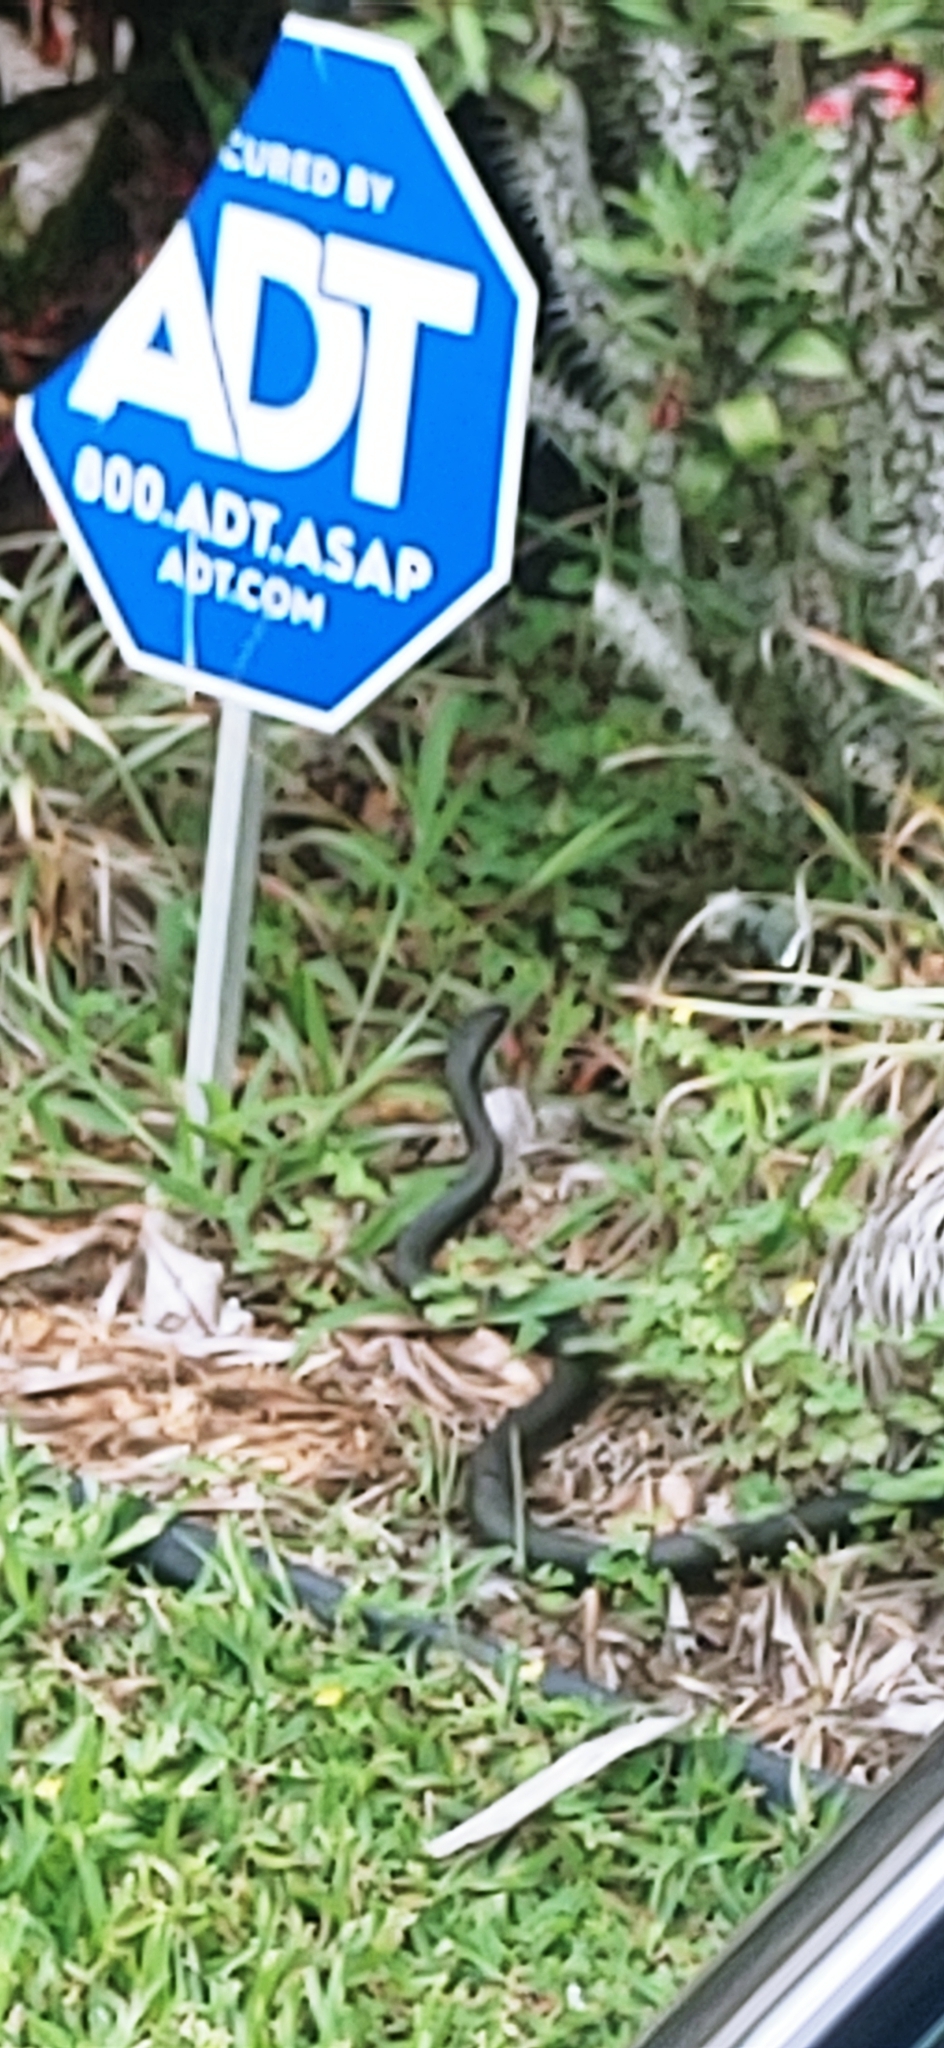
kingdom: Animalia
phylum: Chordata
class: Squamata
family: Colubridae
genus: Coluber
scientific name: Coluber constrictor
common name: Eastern racer
